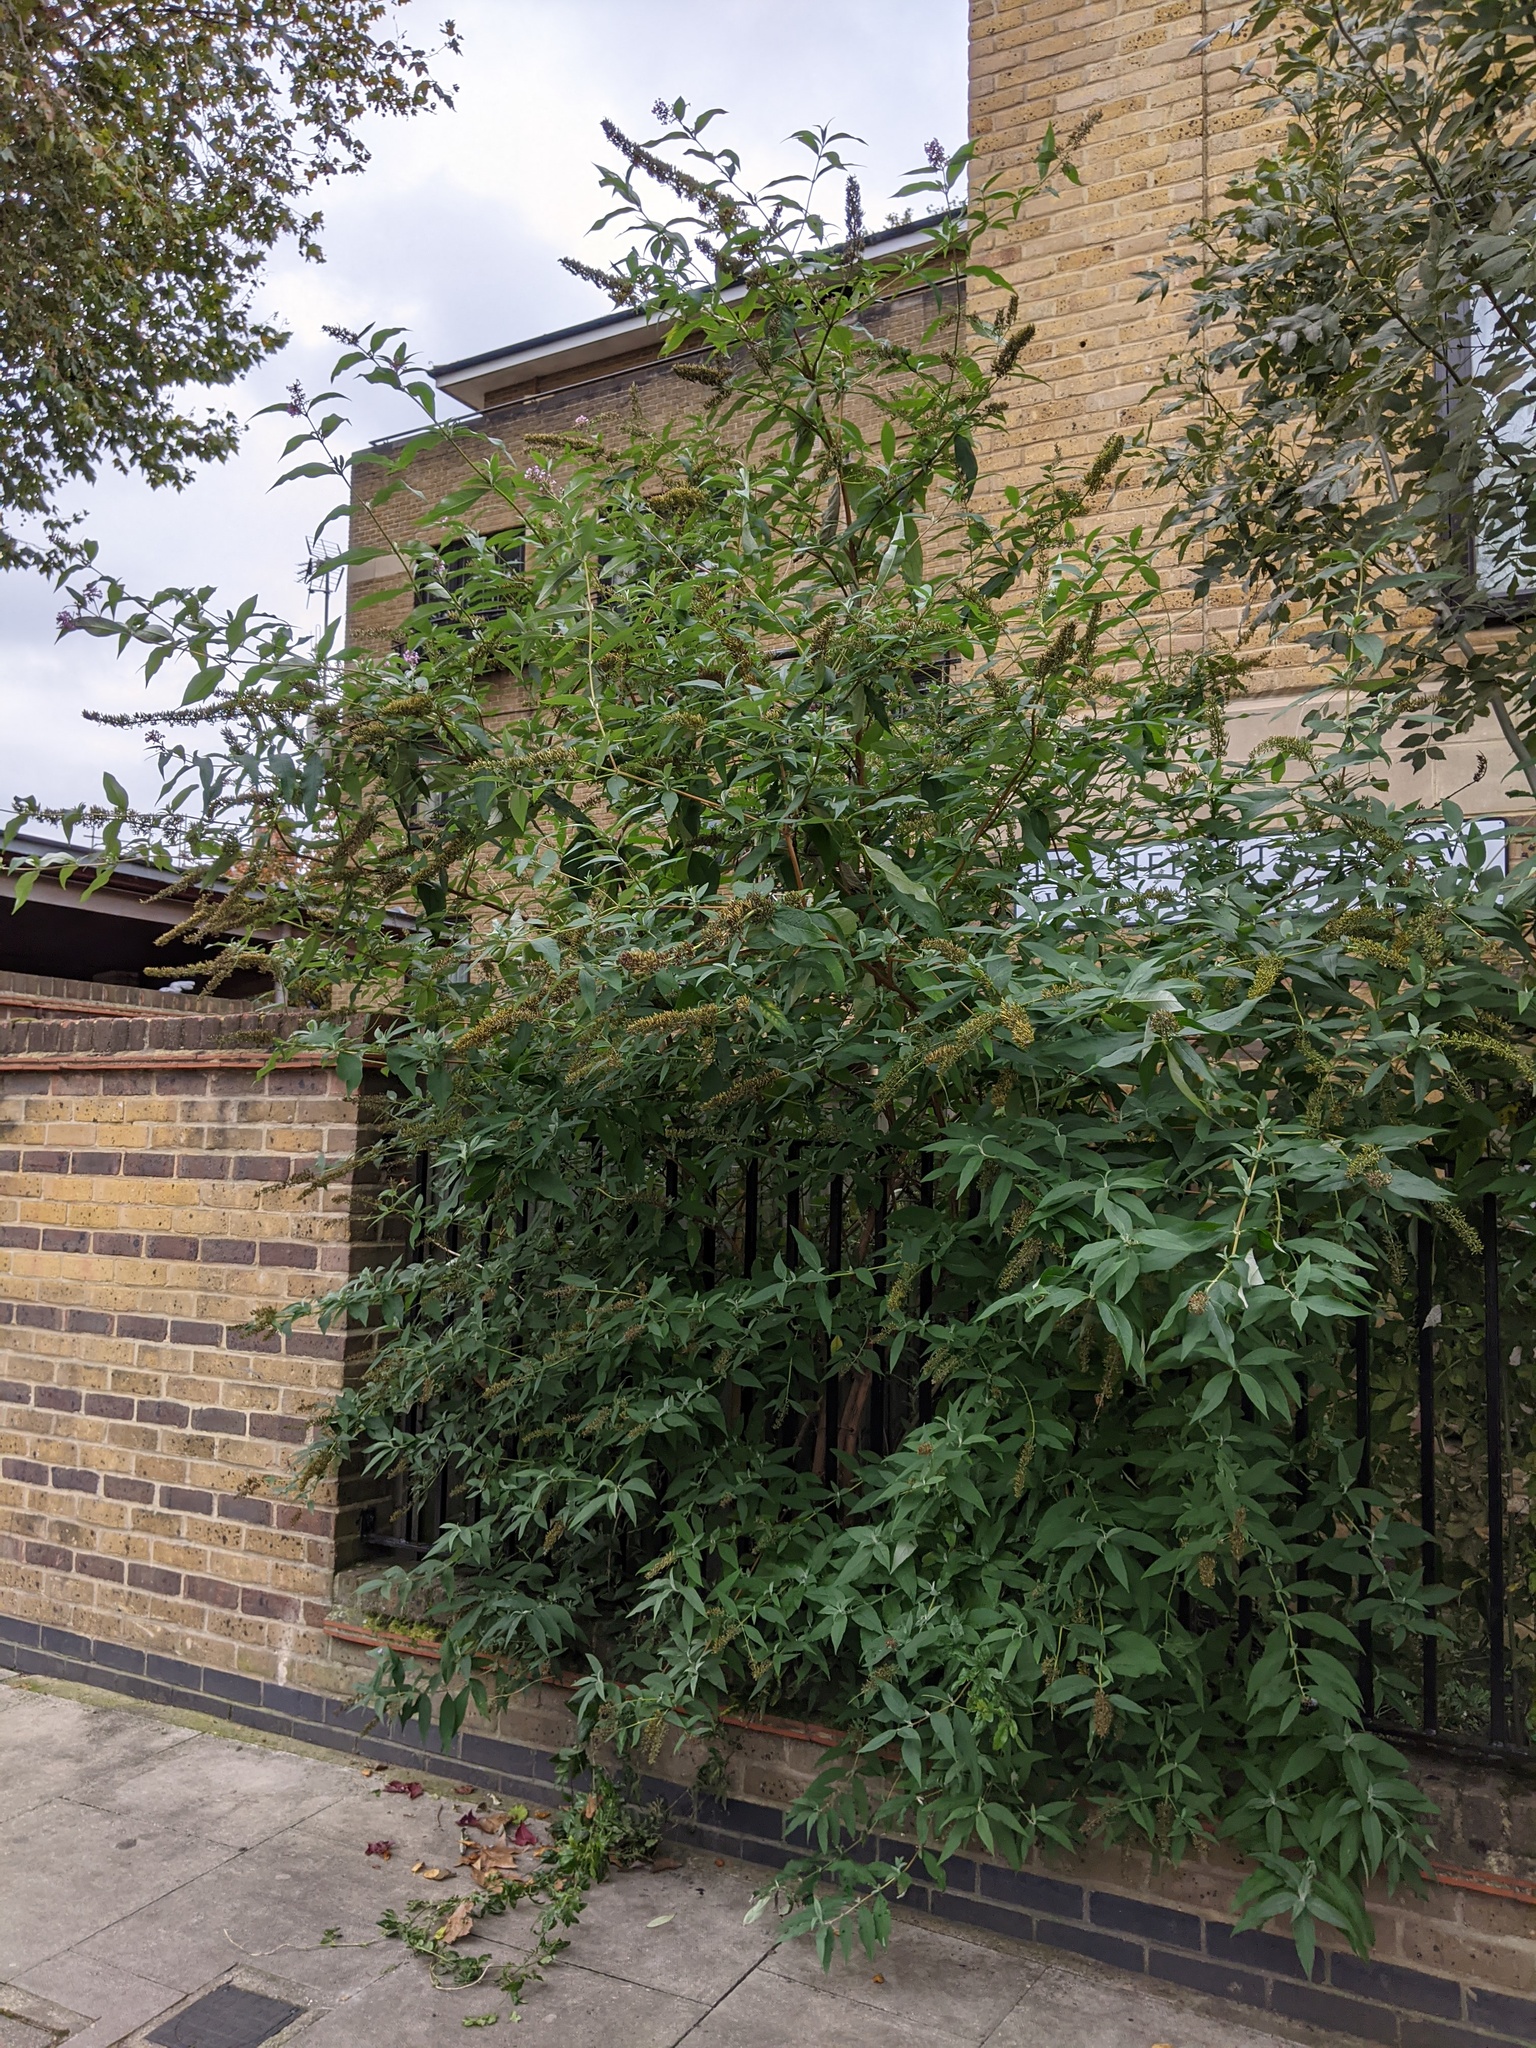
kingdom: Plantae
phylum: Tracheophyta
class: Magnoliopsida
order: Lamiales
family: Scrophulariaceae
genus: Buddleja
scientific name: Buddleja davidii
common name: Butterfly-bush
